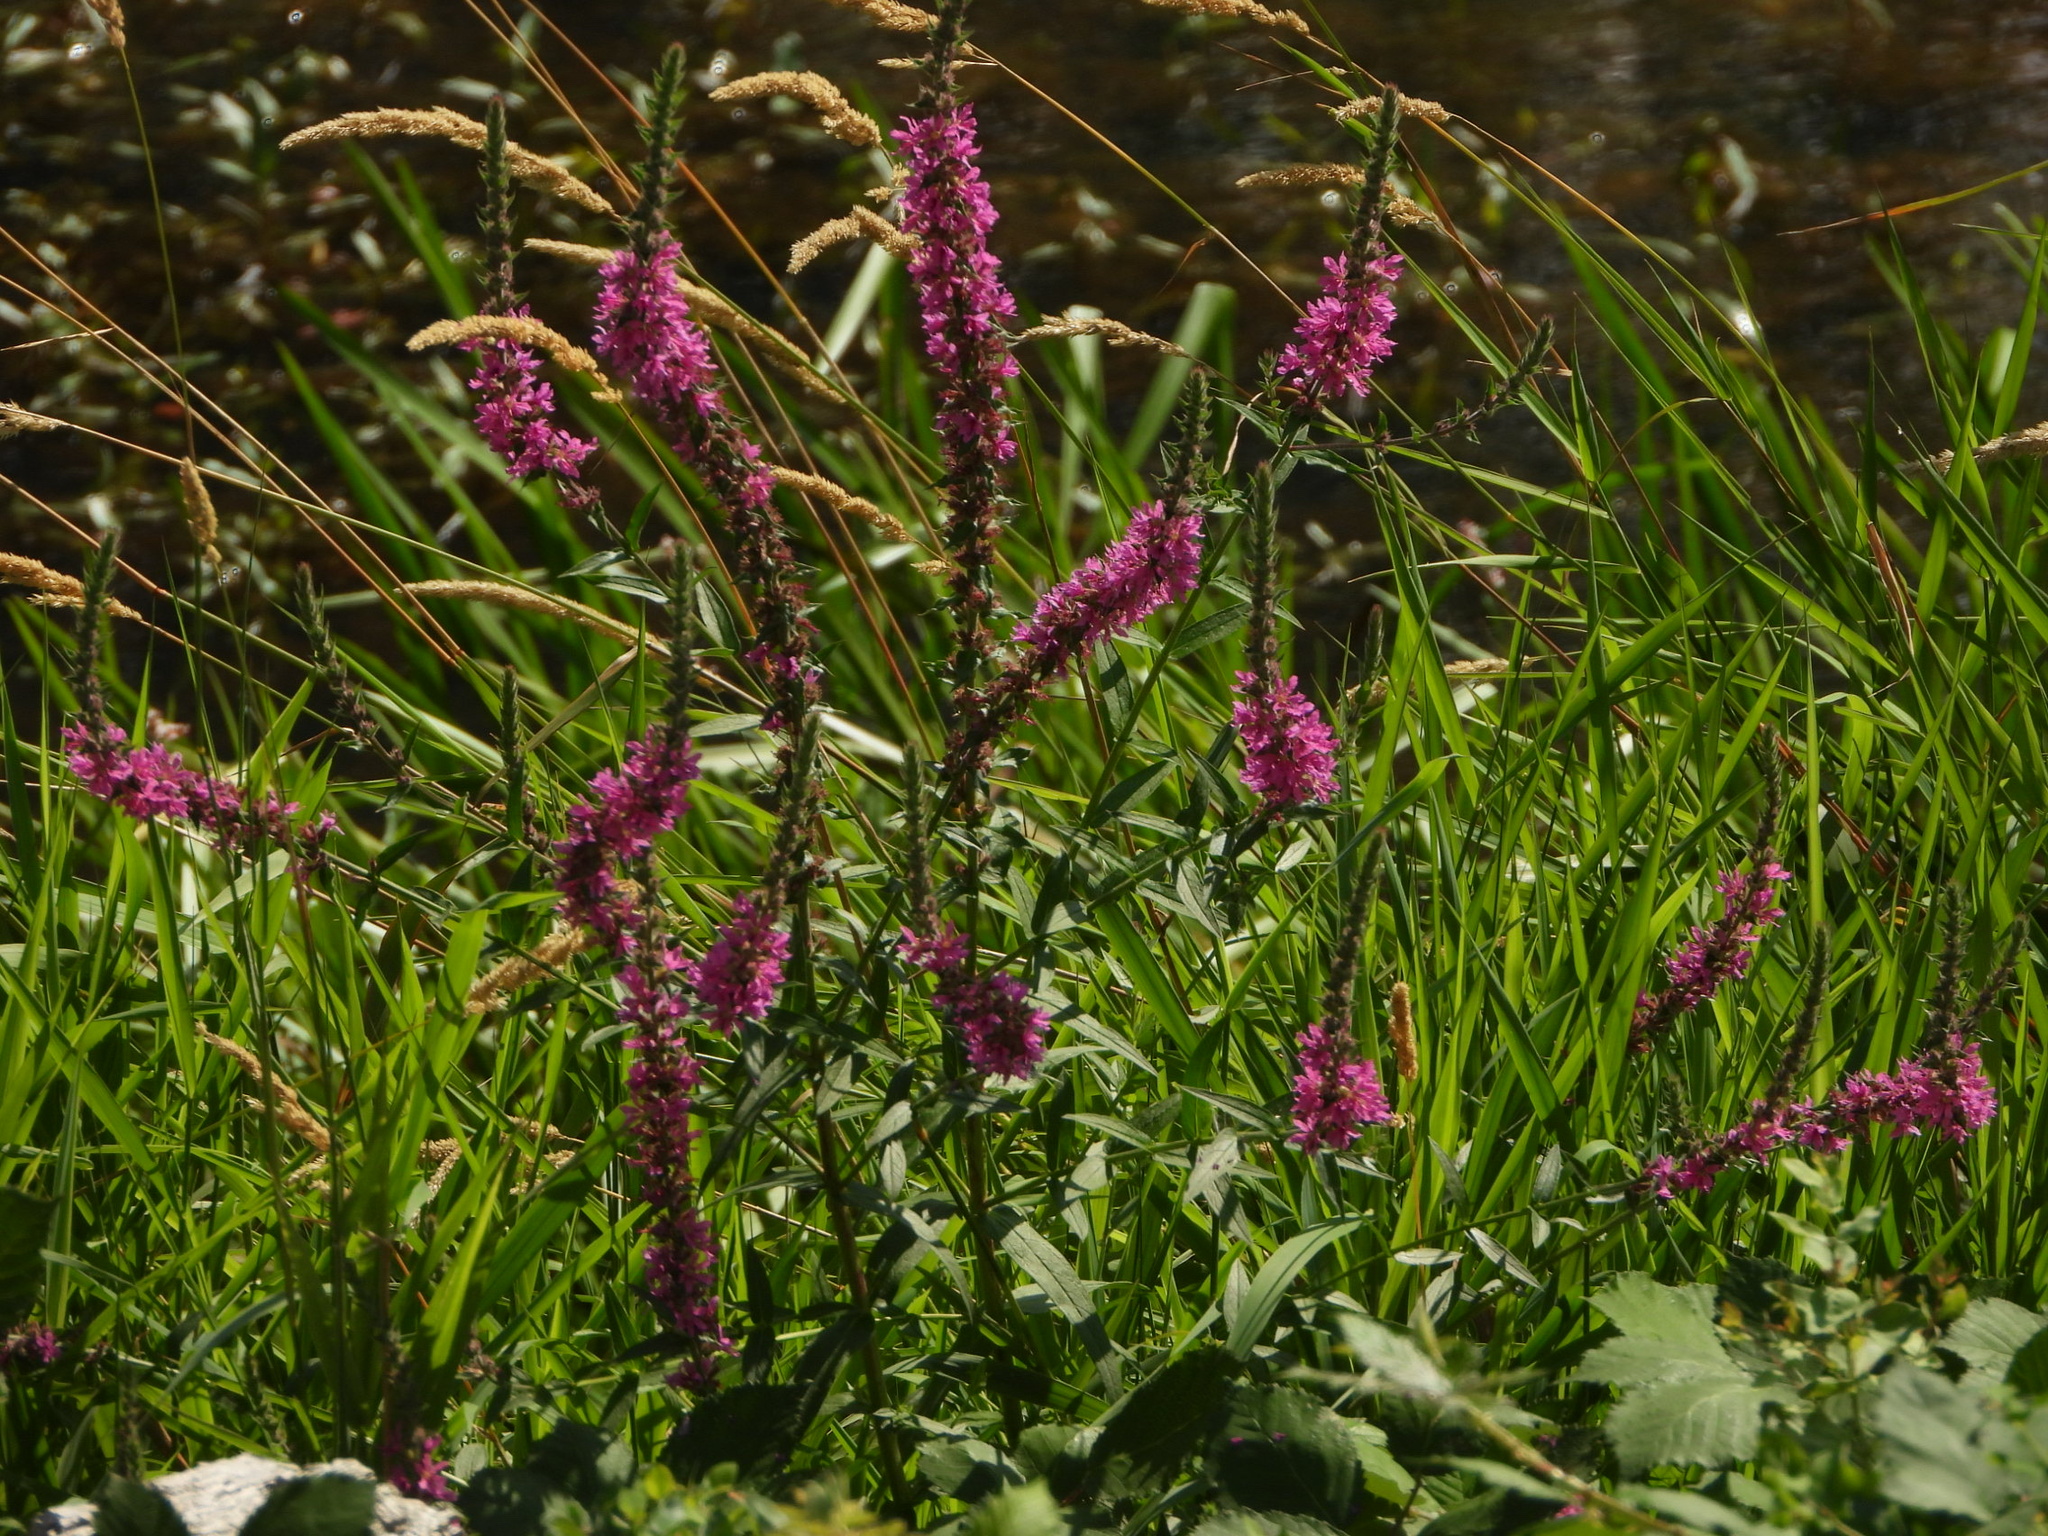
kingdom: Plantae
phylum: Tracheophyta
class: Magnoliopsida
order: Myrtales
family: Lythraceae
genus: Lythrum
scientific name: Lythrum salicaria
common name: Purple loosestrife
